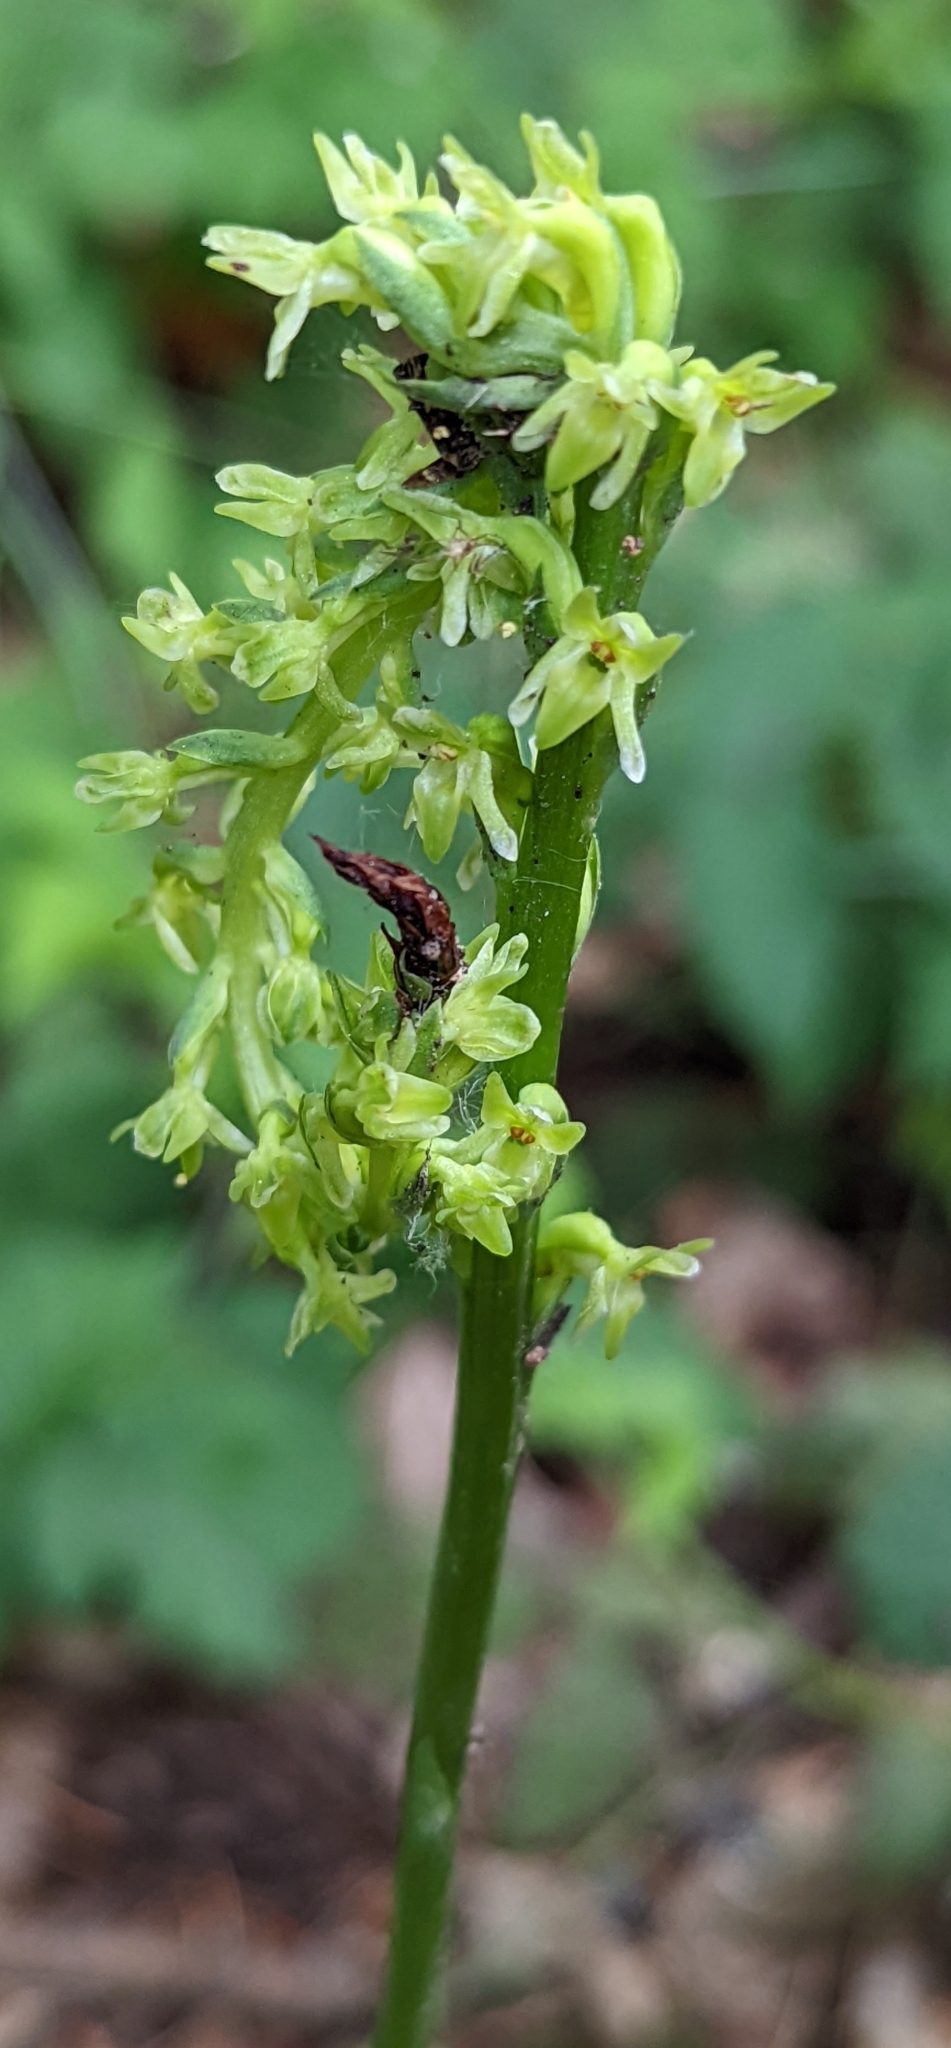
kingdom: Plantae
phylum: Tracheophyta
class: Liliopsida
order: Asparagales
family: Orchidaceae
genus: Platanthera
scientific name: Platanthera unalascensis
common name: Alaska bog orchid
